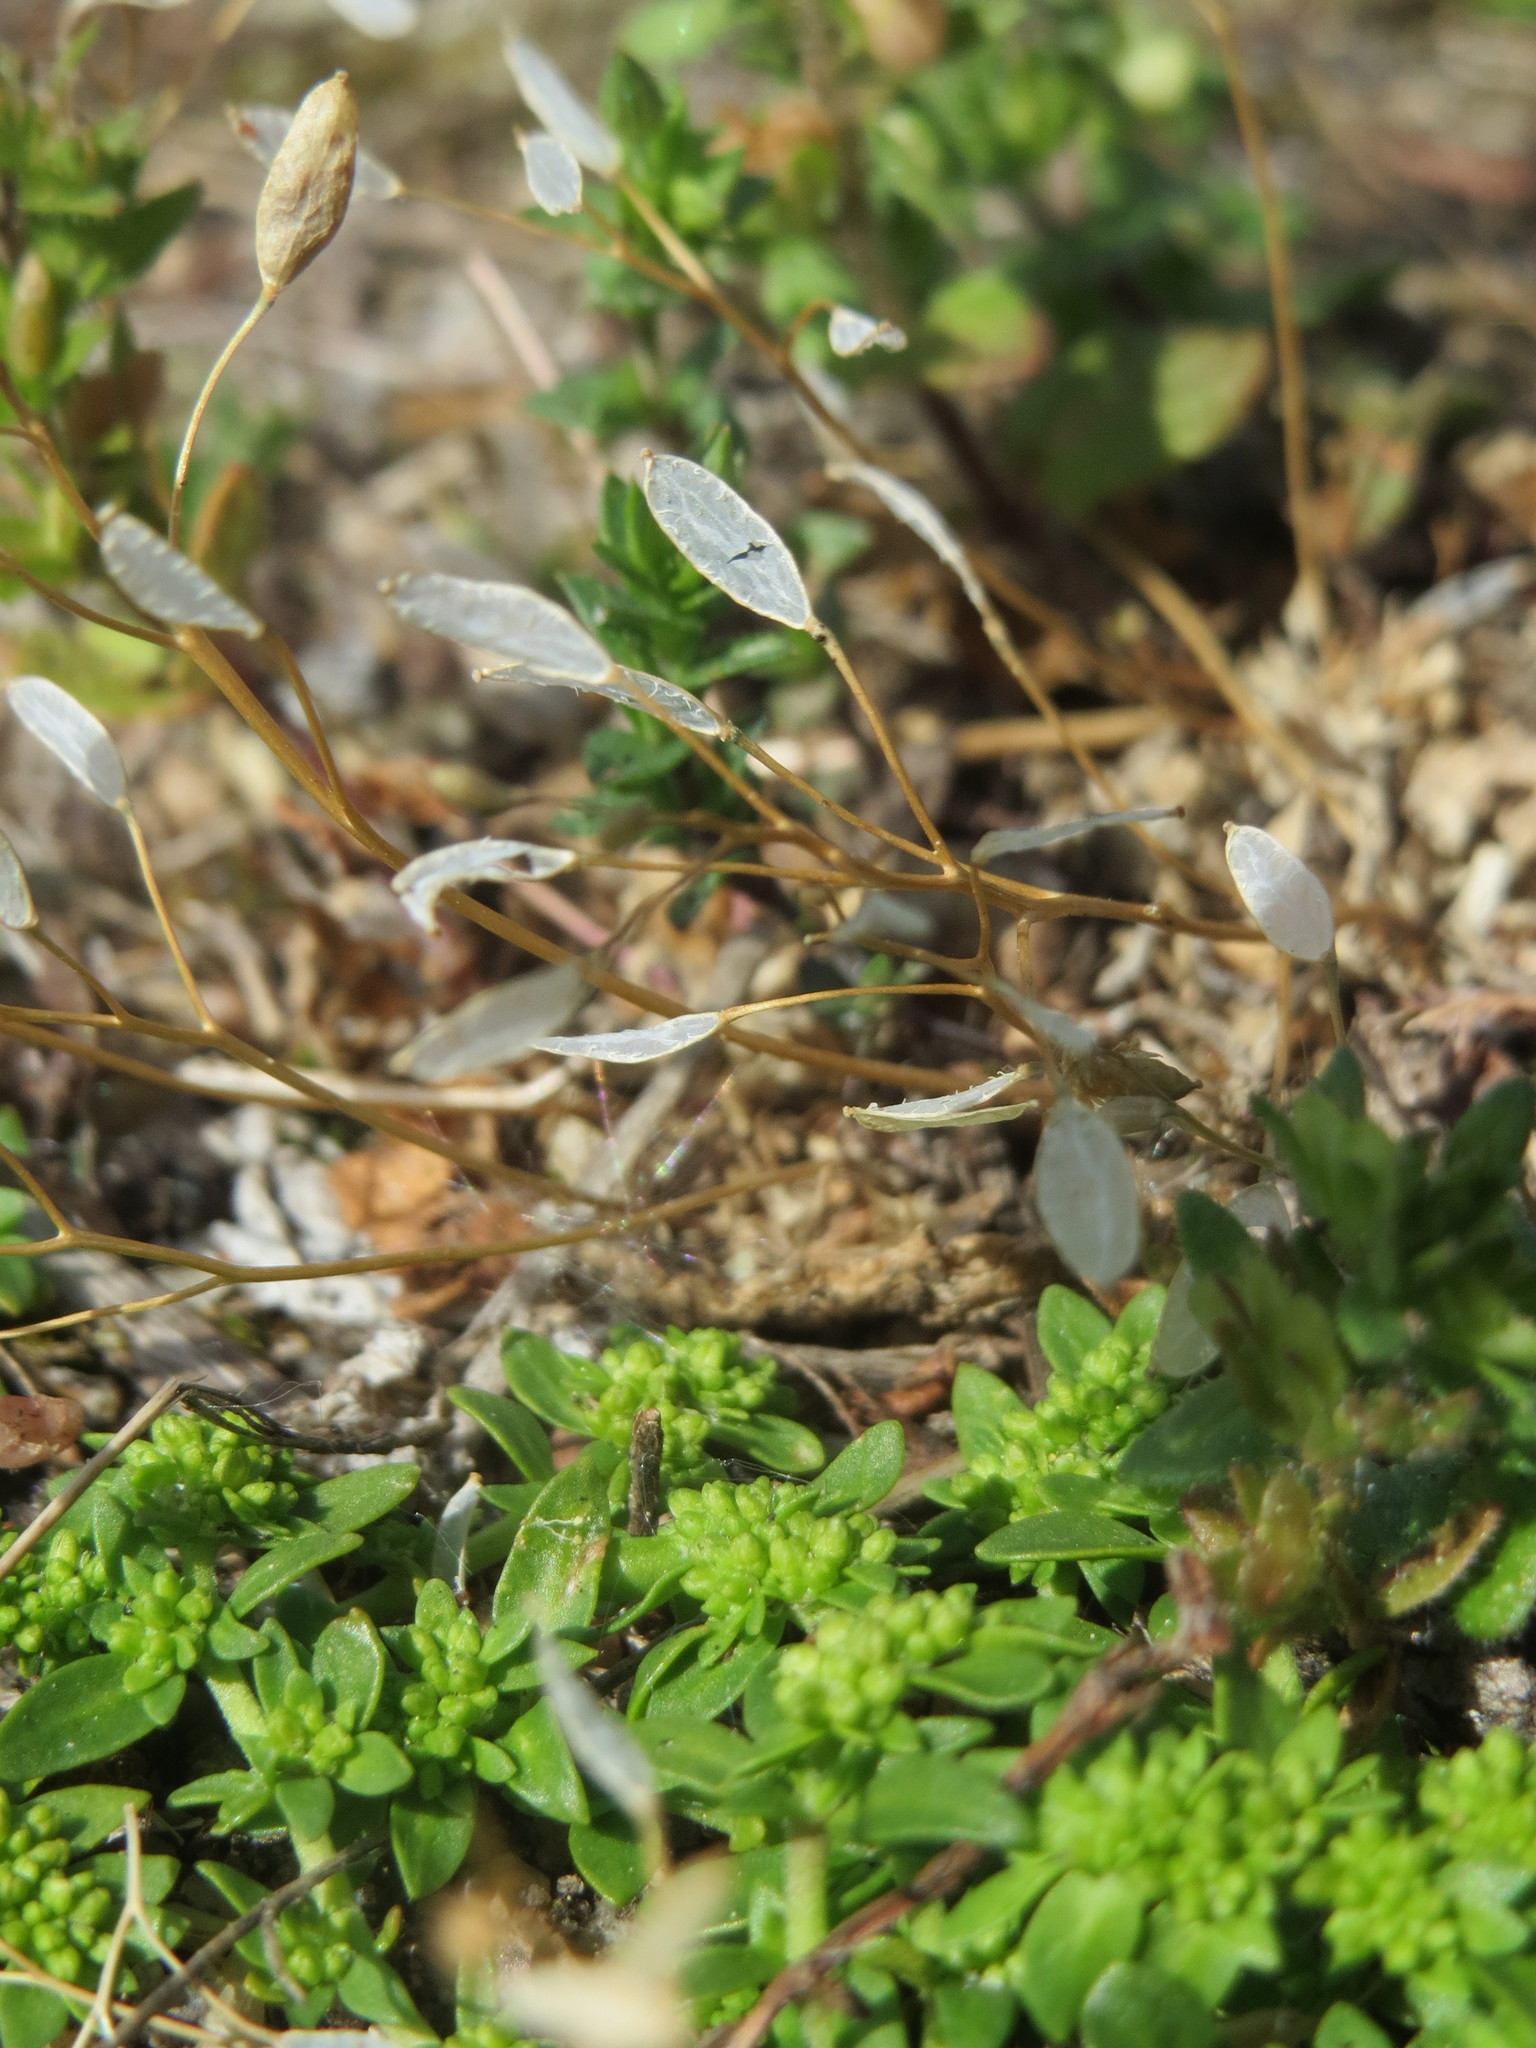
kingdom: Plantae
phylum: Tracheophyta
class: Magnoliopsida
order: Brassicales
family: Brassicaceae
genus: Draba
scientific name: Draba verna
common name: Spring draba
